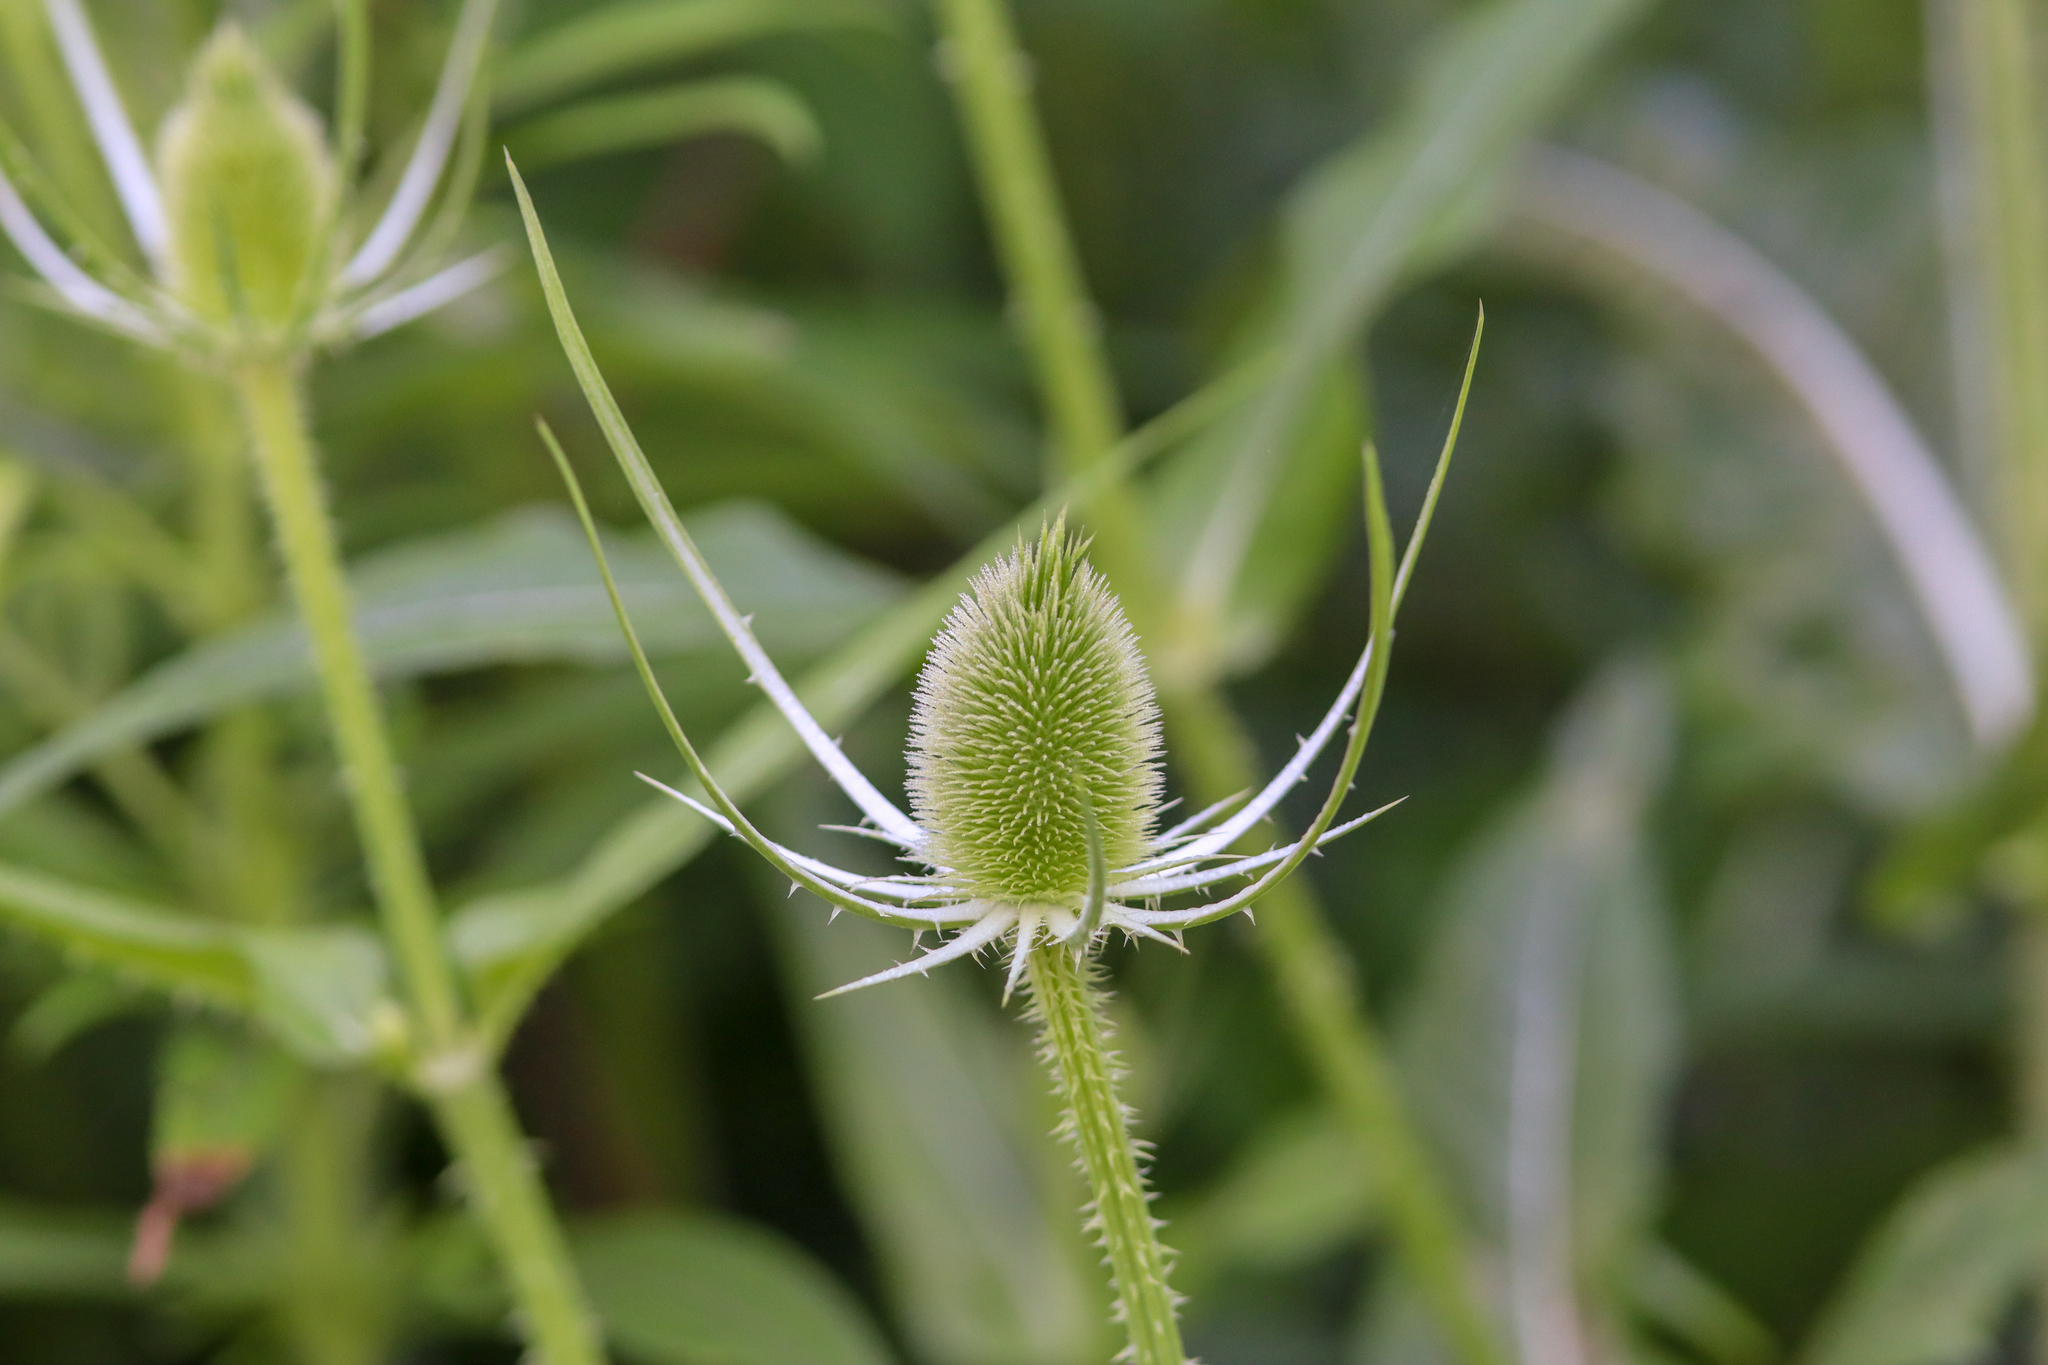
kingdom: Plantae
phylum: Tracheophyta
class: Magnoliopsida
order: Dipsacales
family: Caprifoliaceae
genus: Dipsacus
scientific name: Dipsacus fullonum
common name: Teasel
